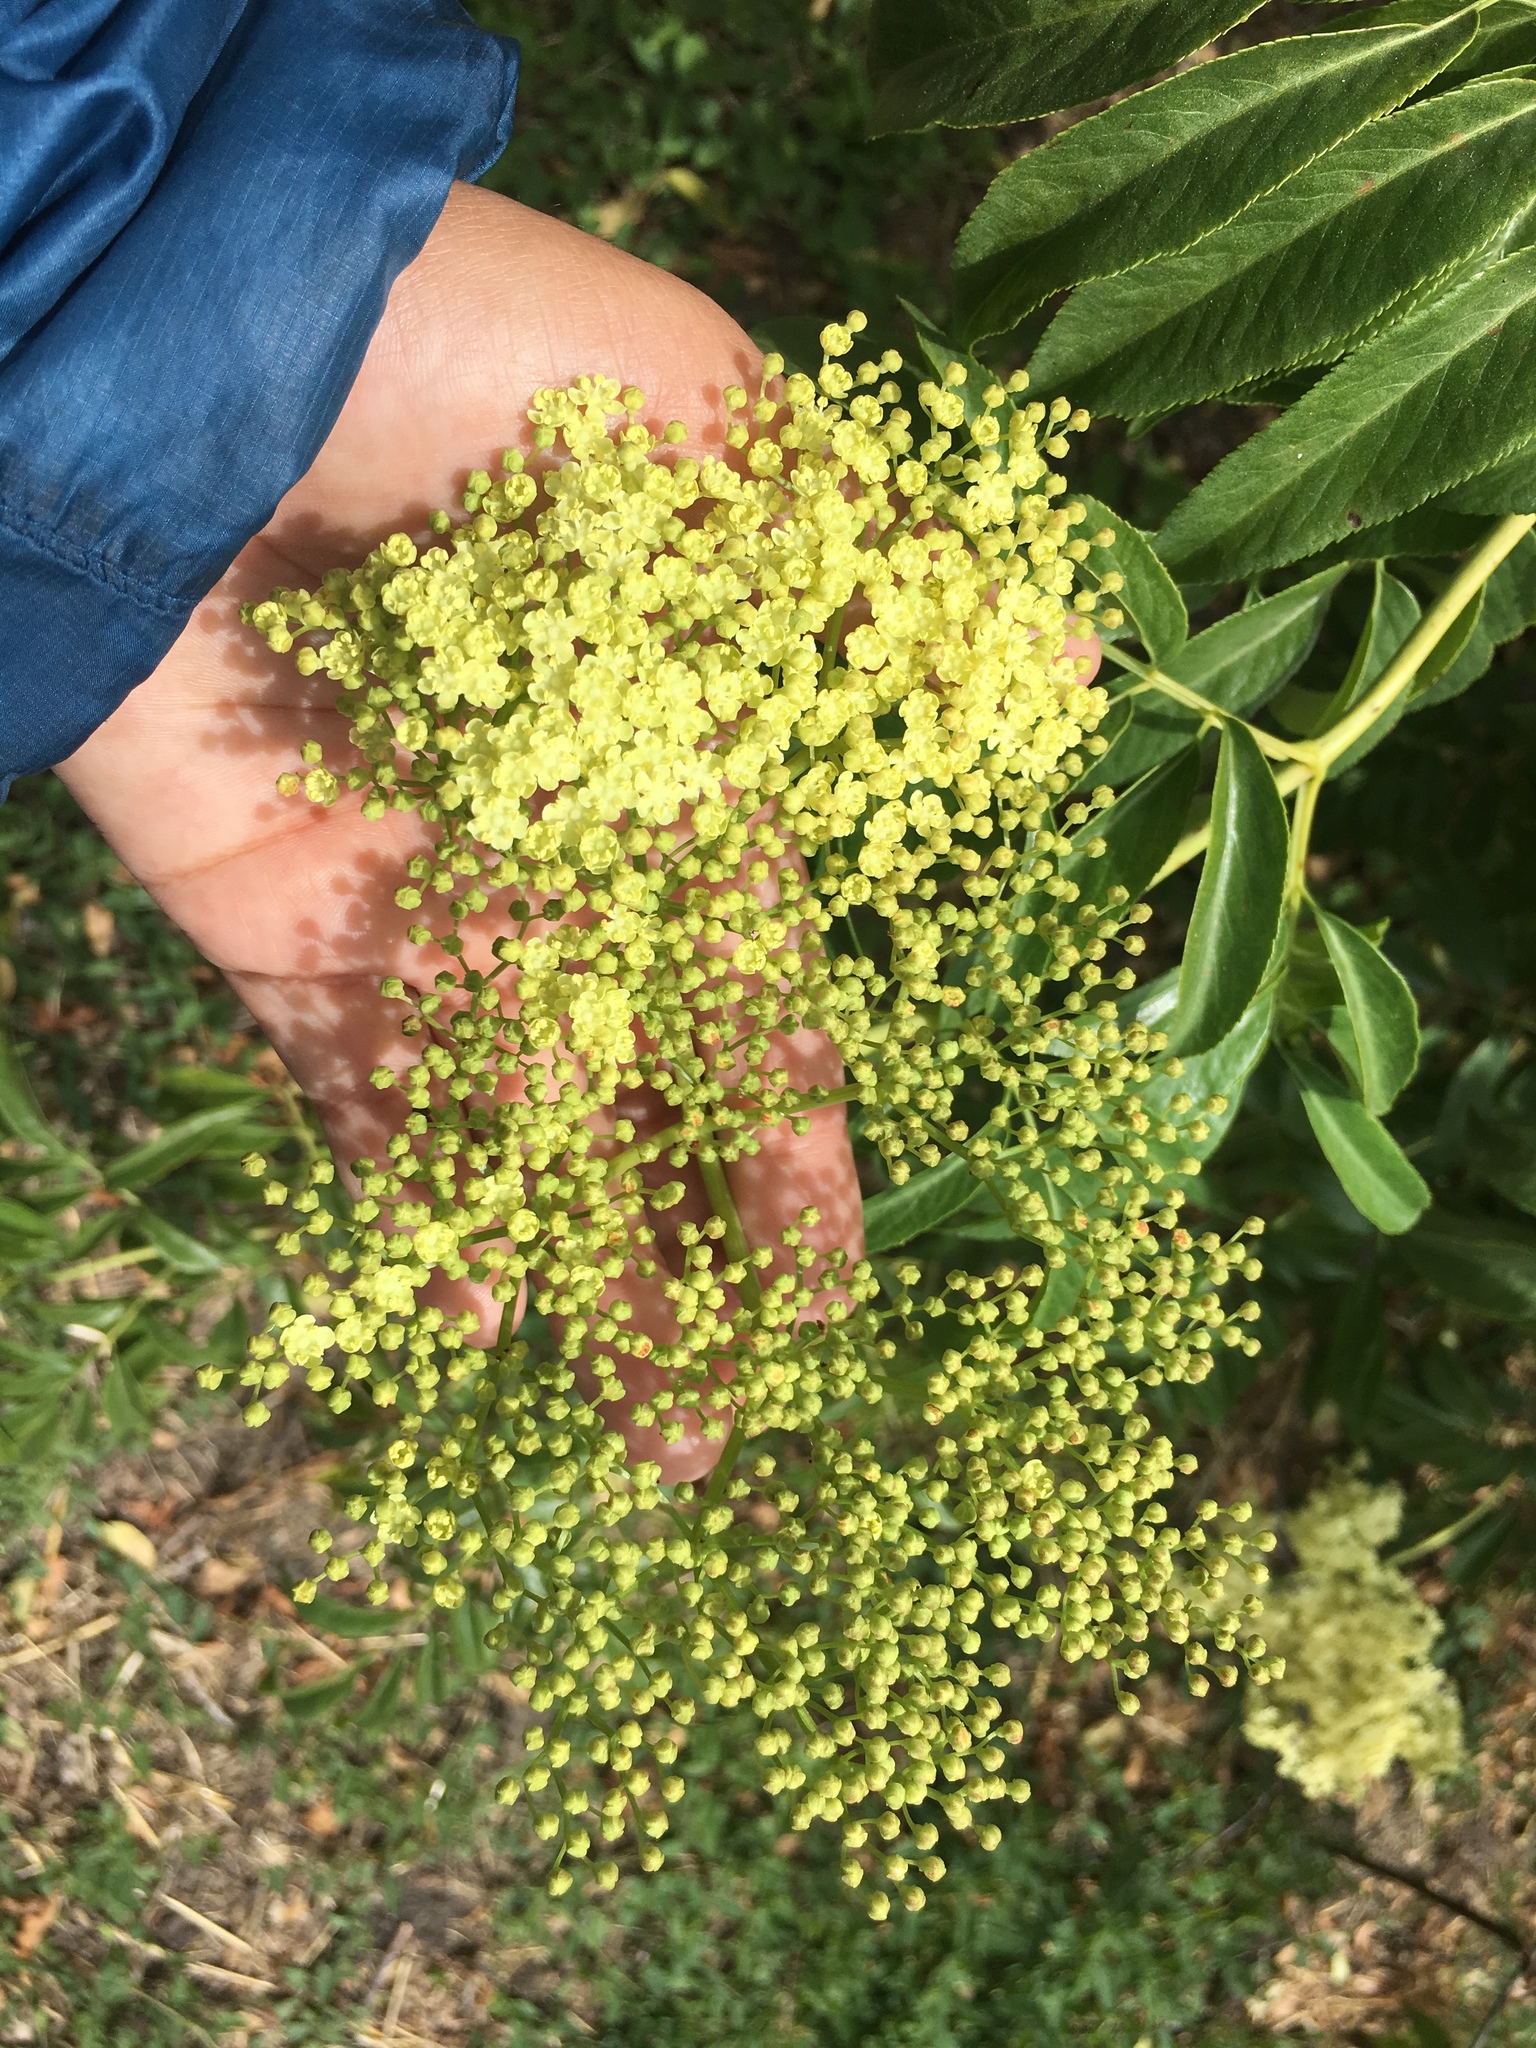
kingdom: Plantae
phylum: Tracheophyta
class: Magnoliopsida
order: Dipsacales
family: Viburnaceae
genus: Sambucus
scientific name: Sambucus cerulea
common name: Blue elder
